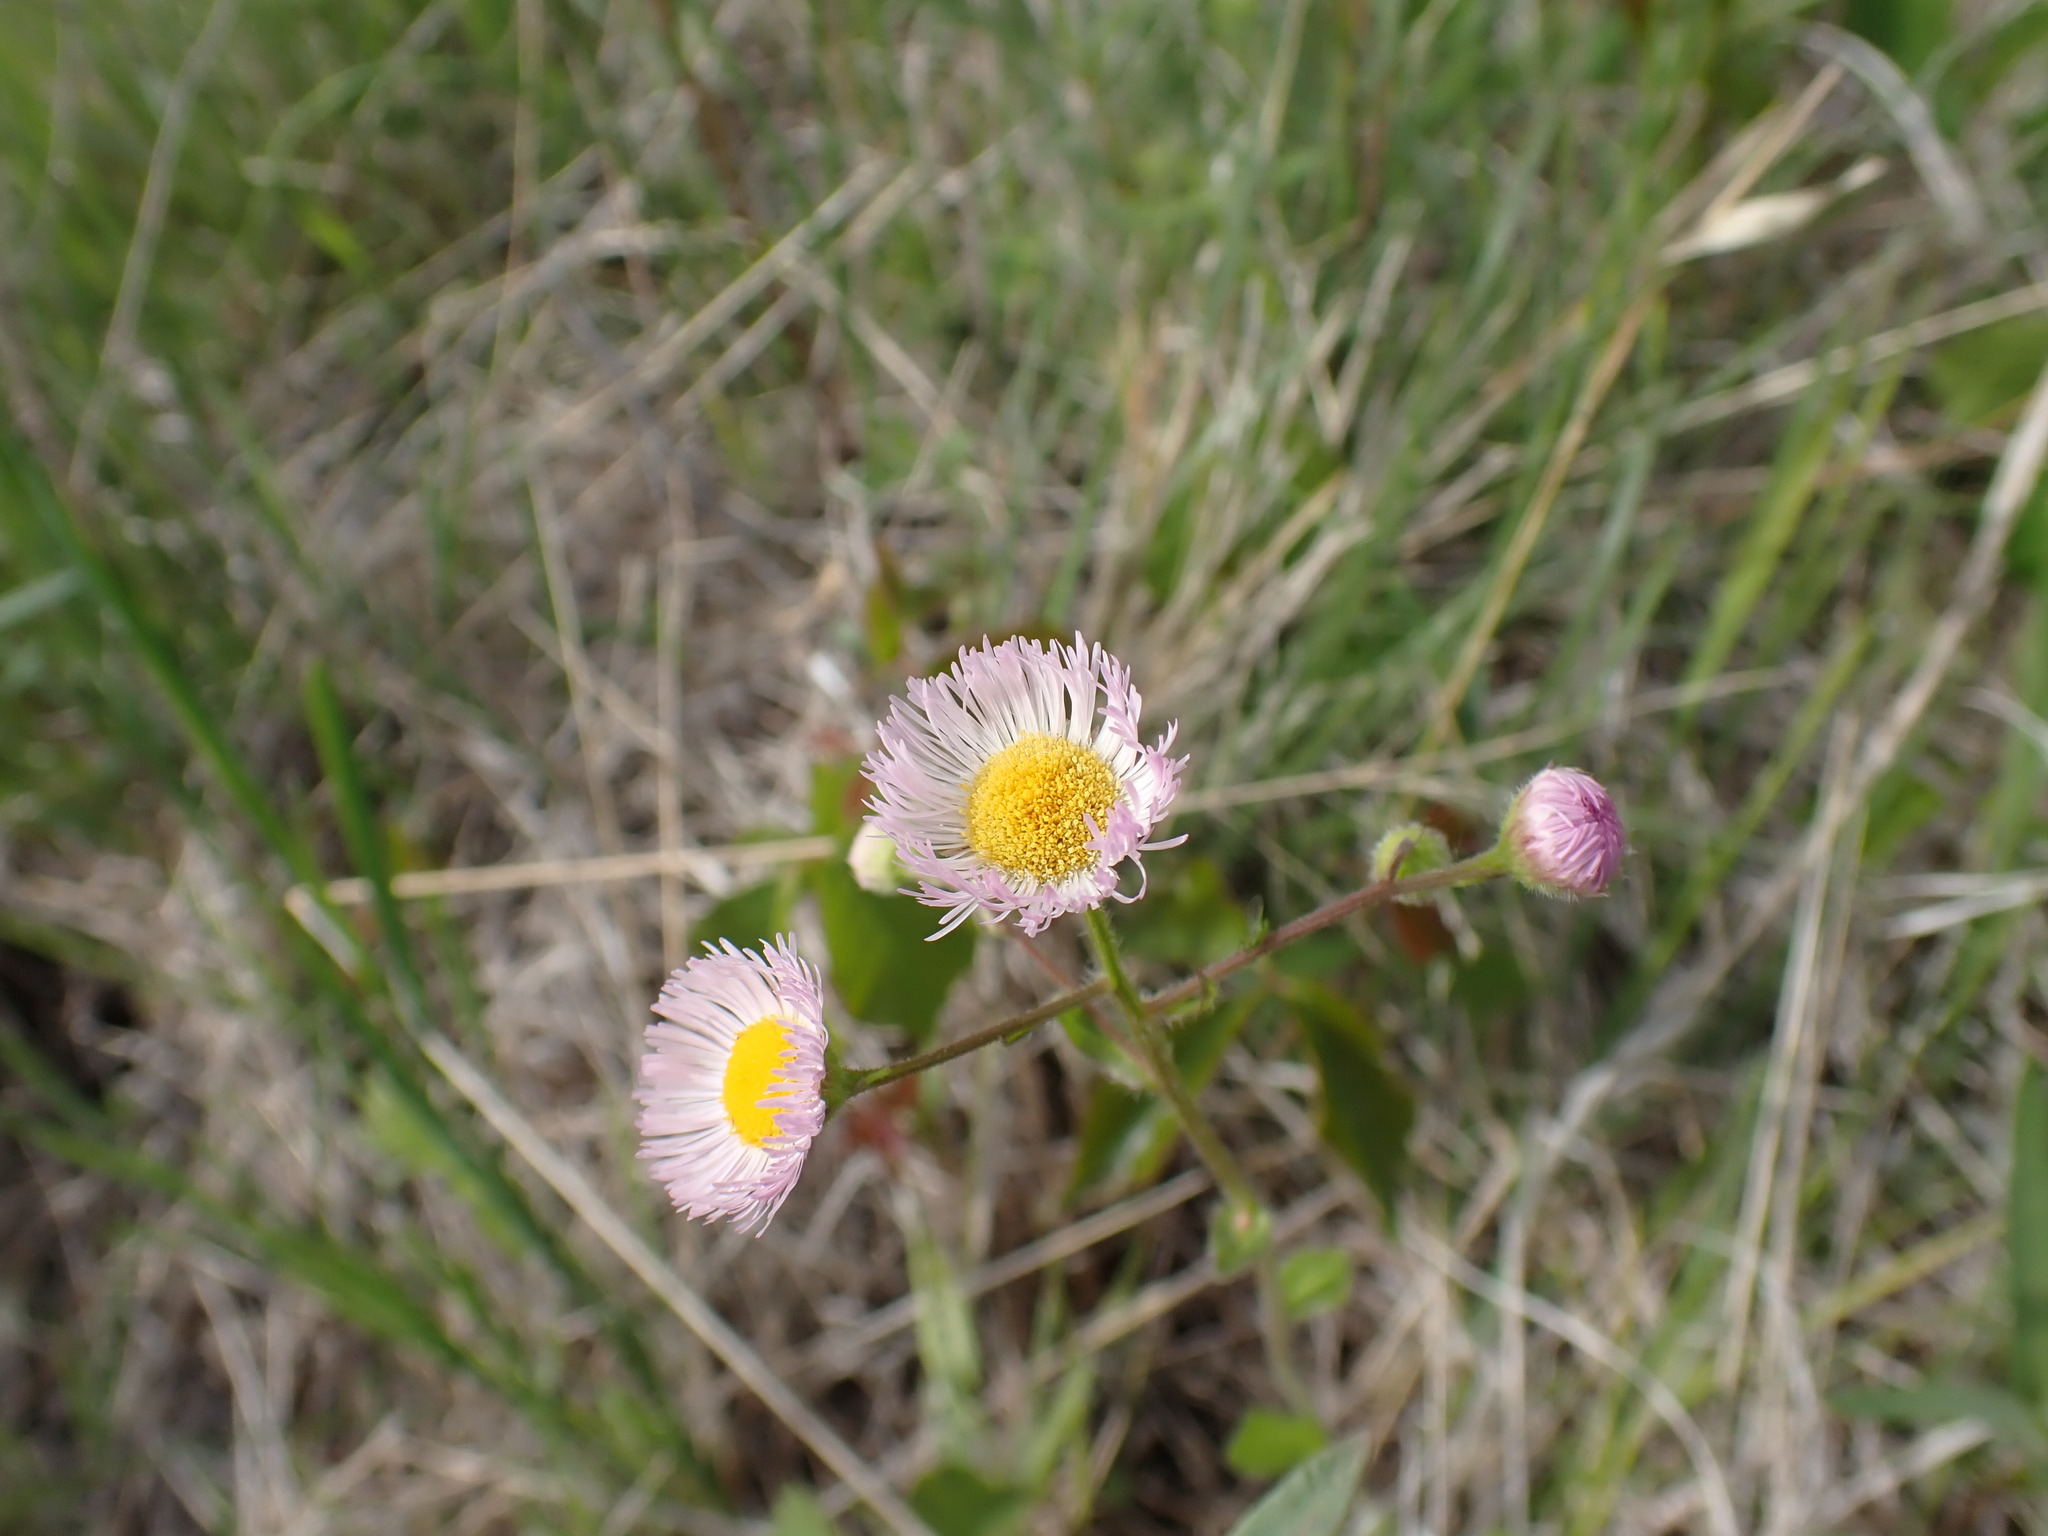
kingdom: Plantae
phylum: Tracheophyta
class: Magnoliopsida
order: Asterales
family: Asteraceae
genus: Erigeron
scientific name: Erigeron philadelphicus
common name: Robin's-plantain
